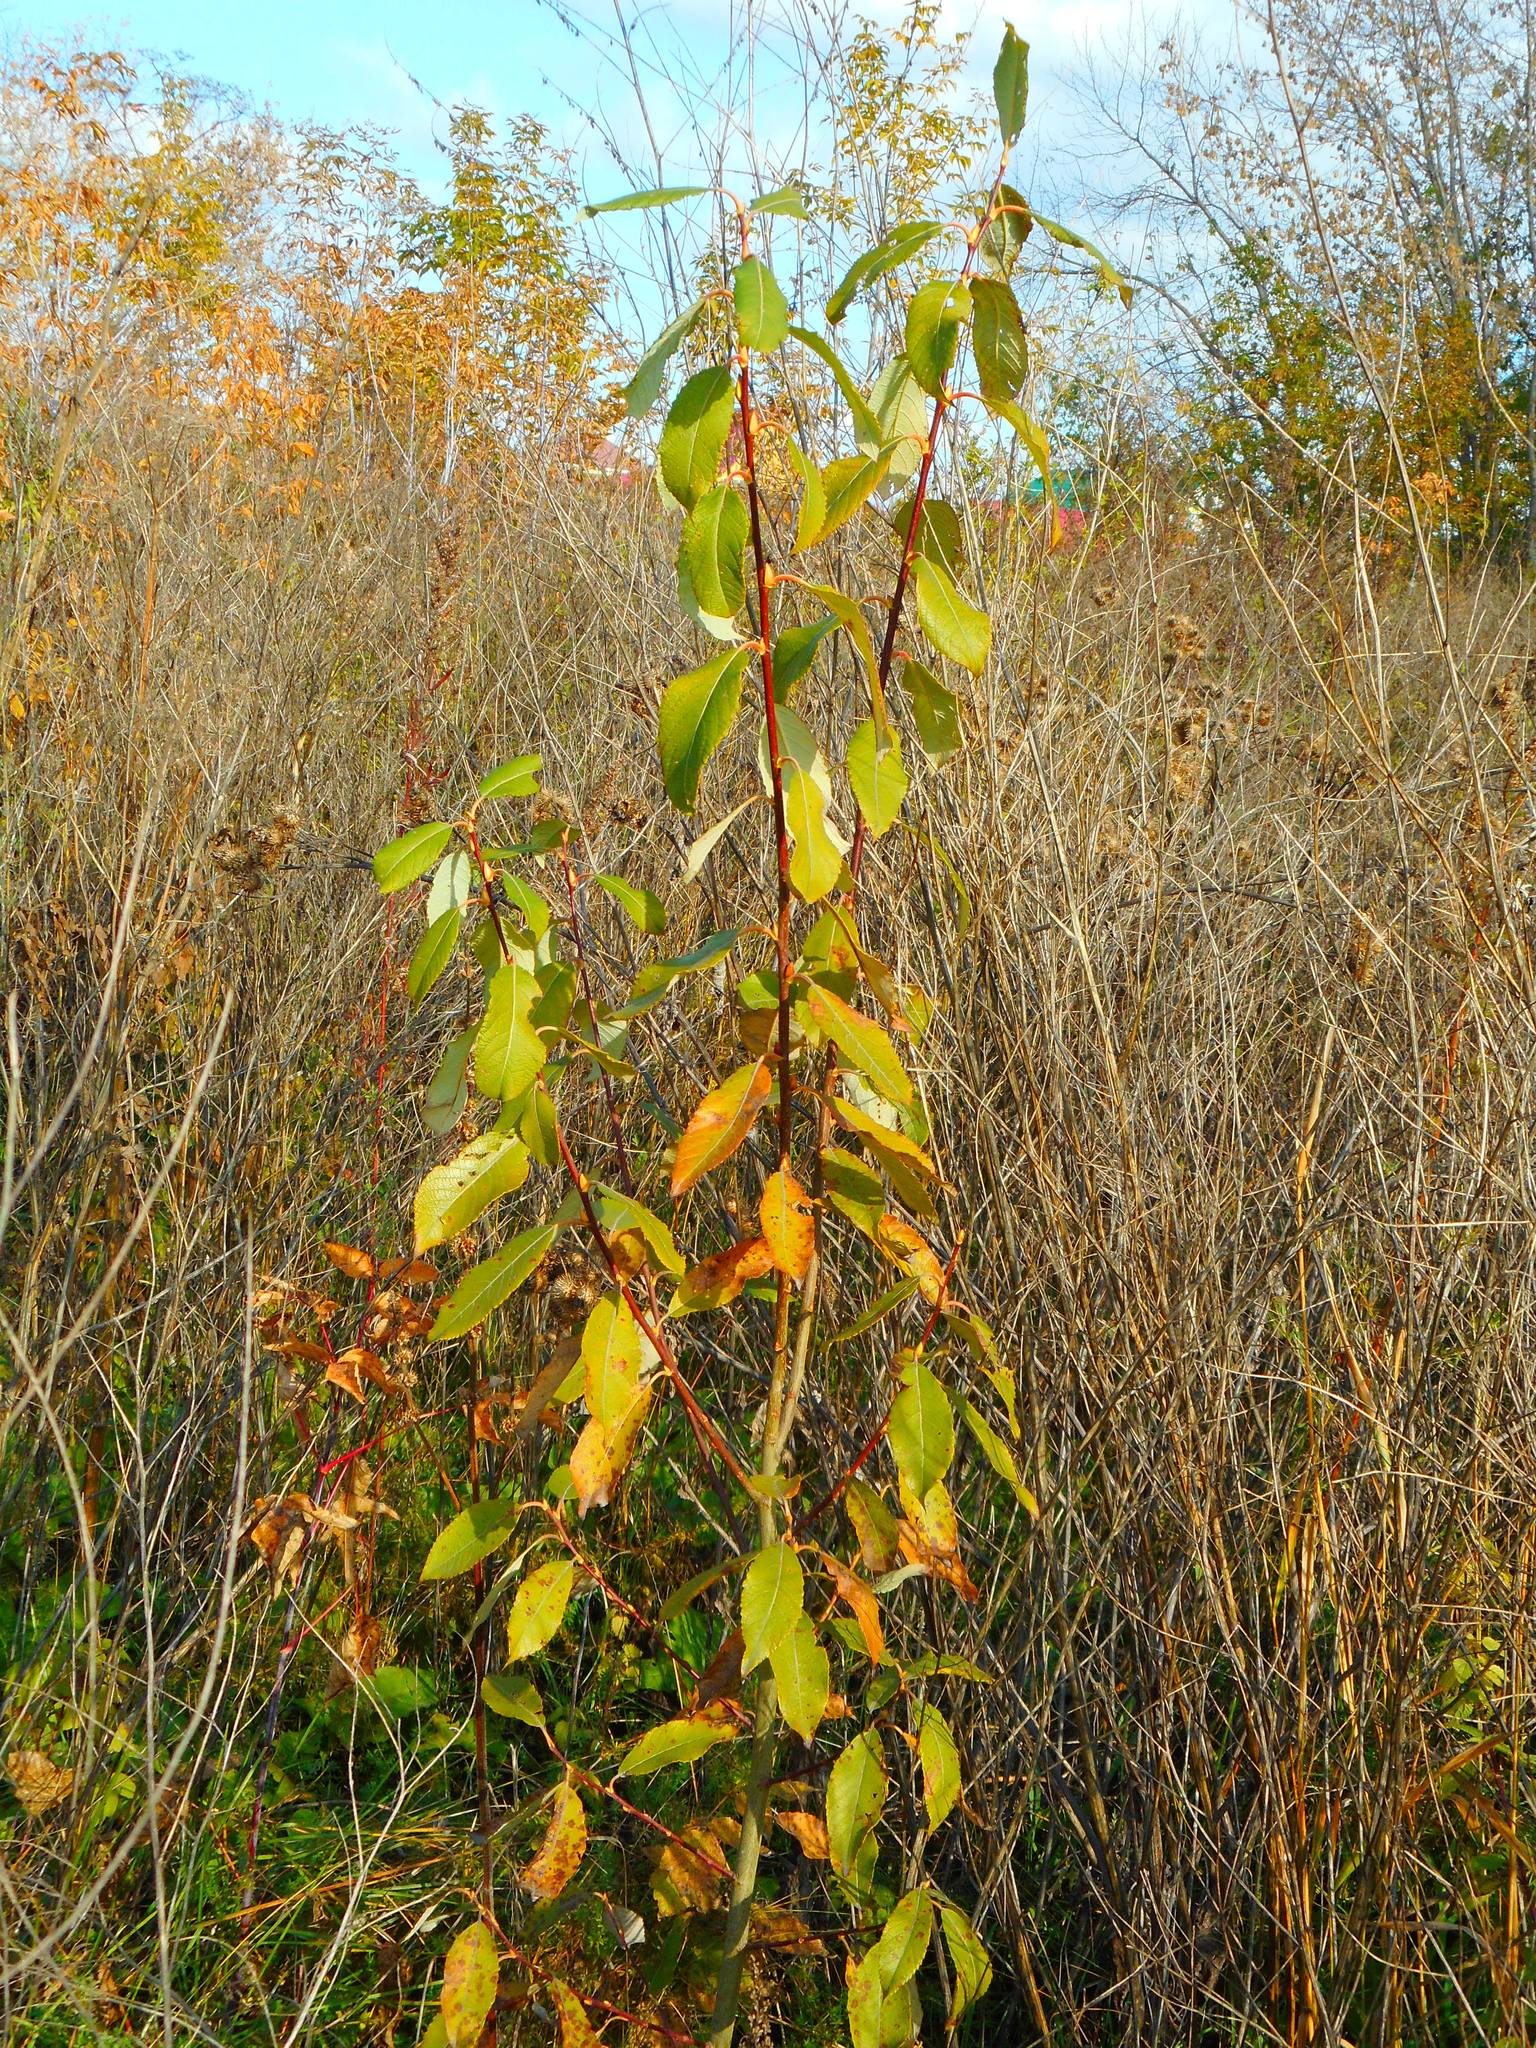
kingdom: Plantae
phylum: Tracheophyta
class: Magnoliopsida
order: Malpighiales
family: Salicaceae
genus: Salix
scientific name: Salix caprea
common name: Goat willow
